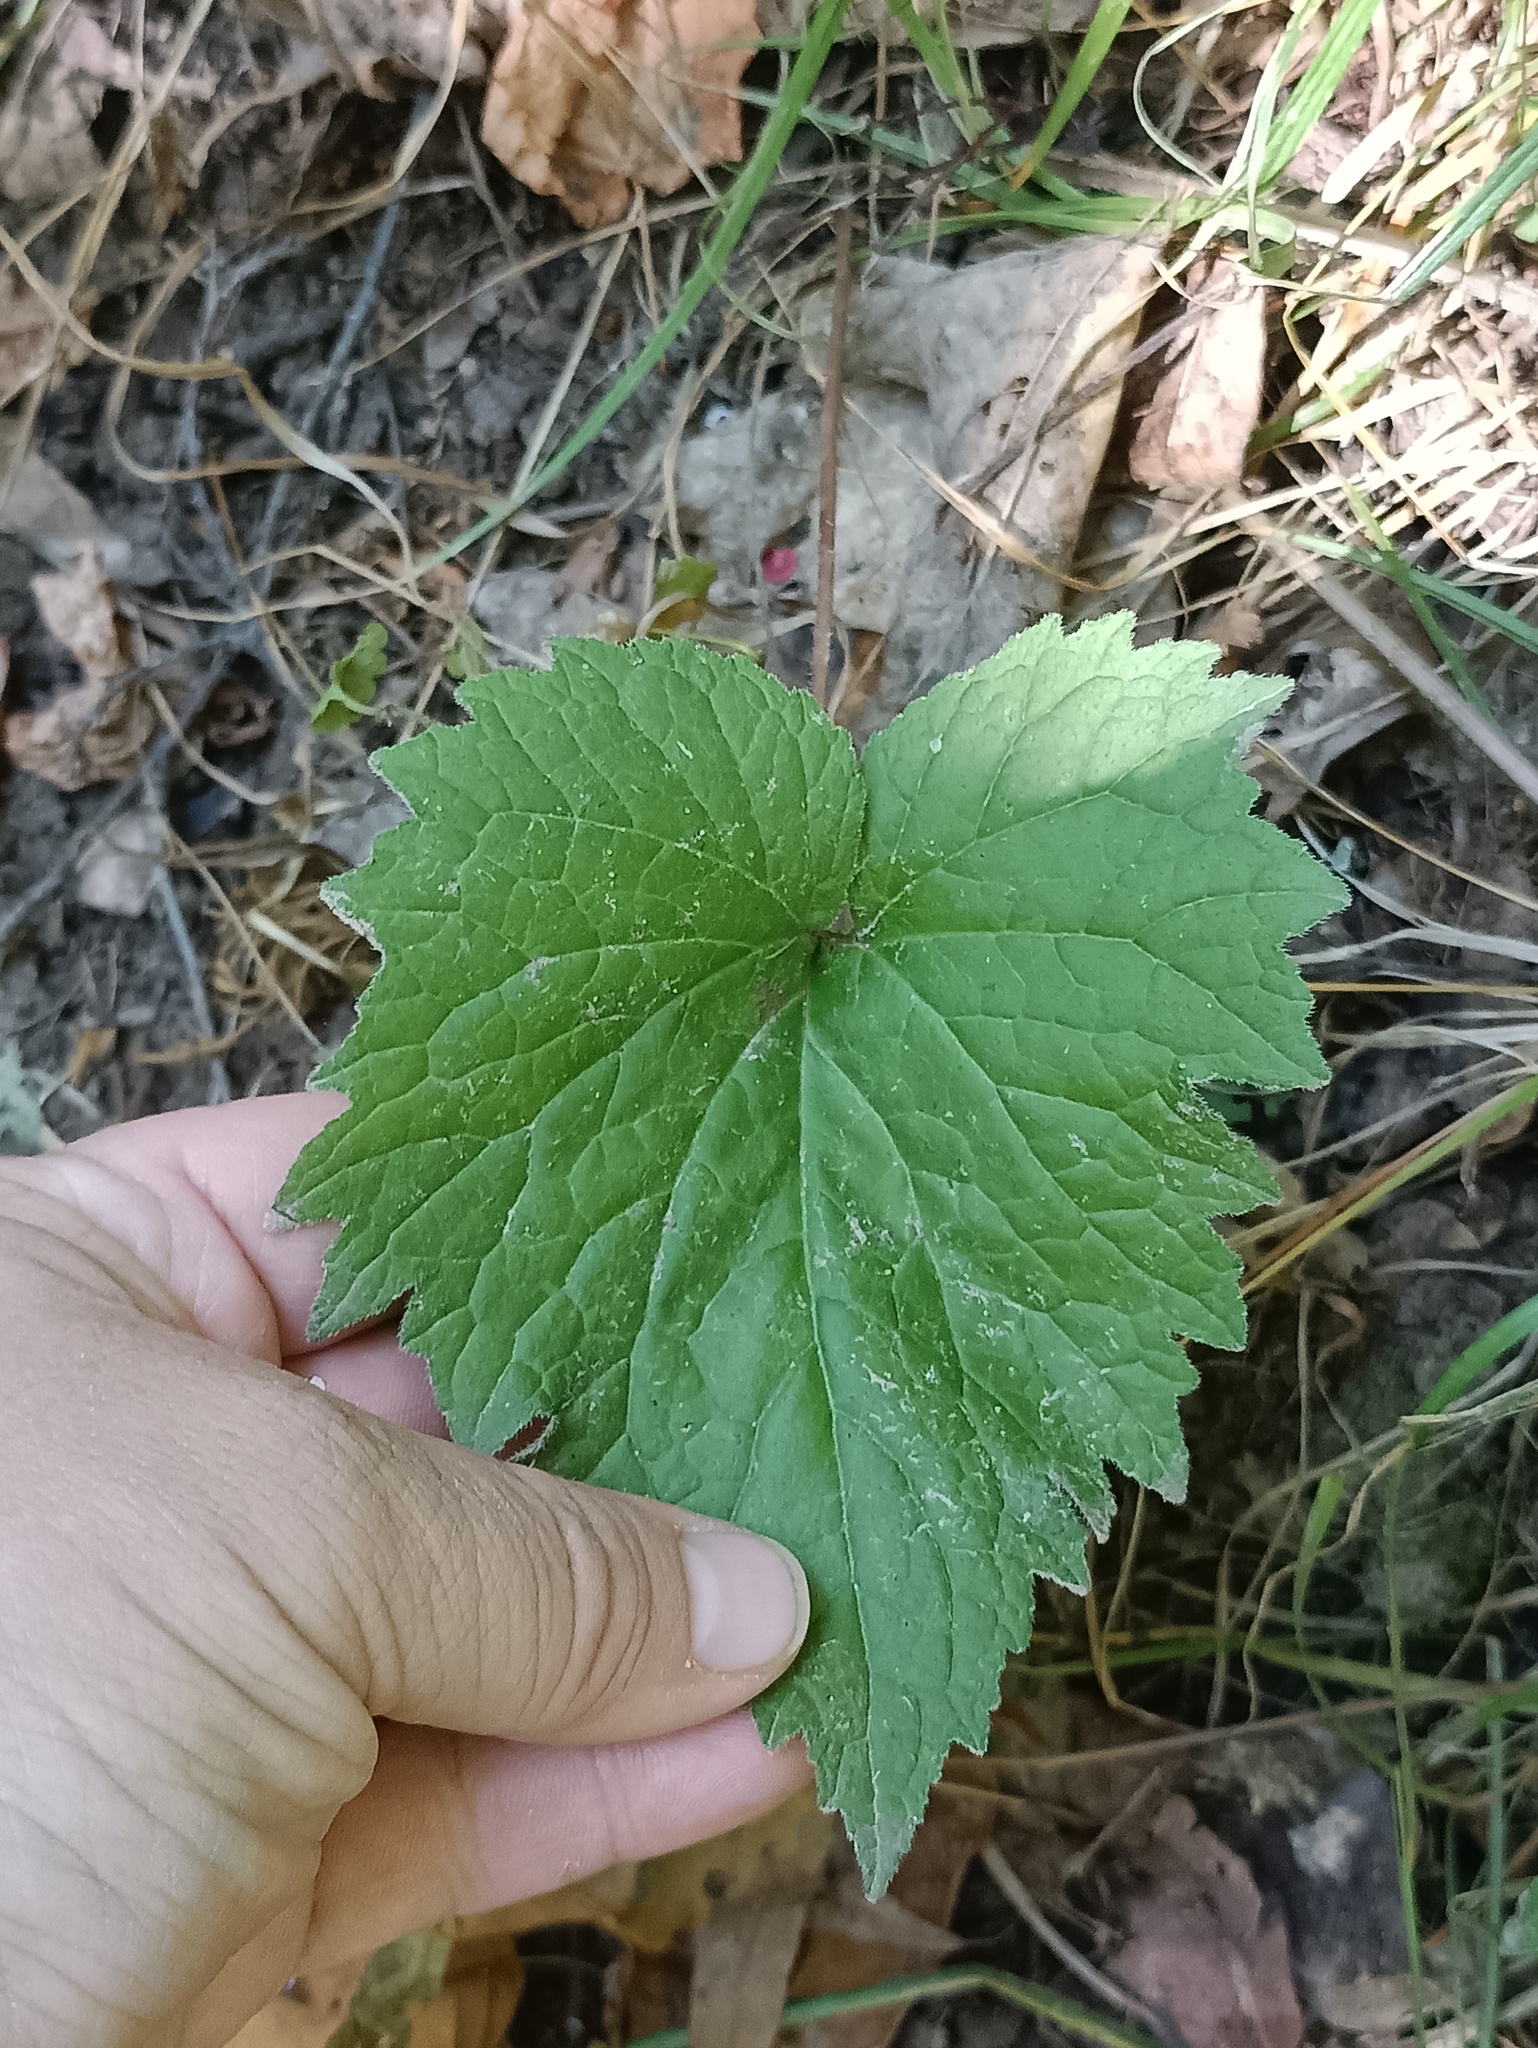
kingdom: Plantae
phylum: Tracheophyta
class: Magnoliopsida
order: Asterales
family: Campanulaceae
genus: Campanula
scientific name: Campanula trachelium
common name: Nettle-leaved bellflower
